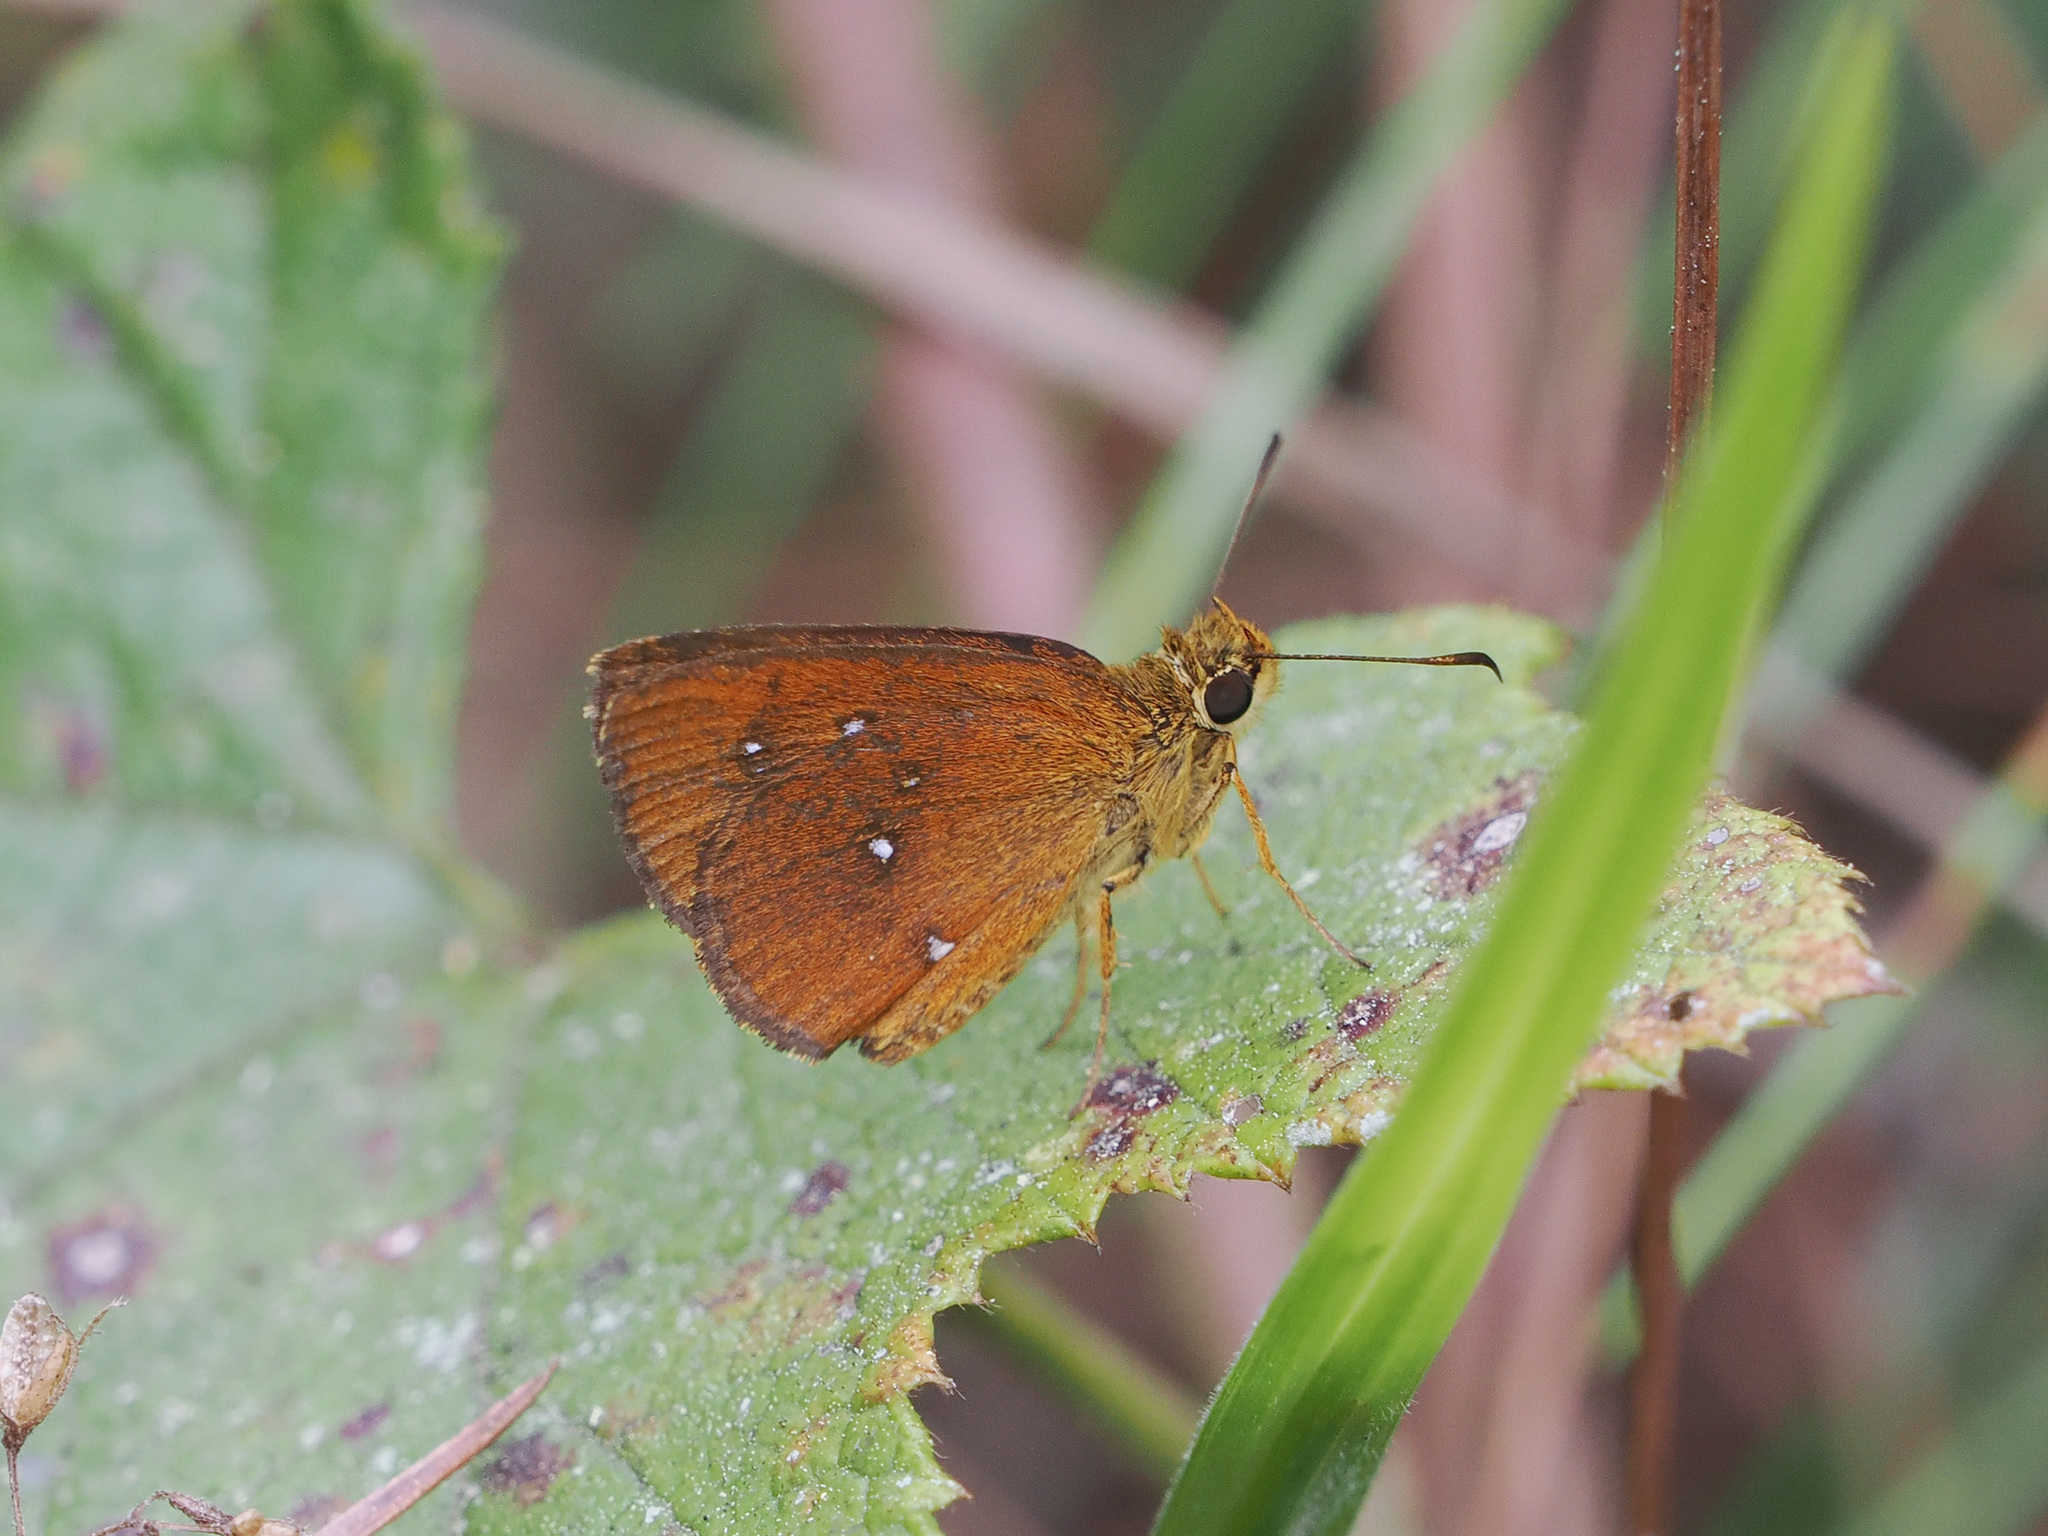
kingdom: Animalia
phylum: Arthropoda
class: Insecta
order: Lepidoptera
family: Hesperiidae
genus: Iambrix
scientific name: Iambrix salsala
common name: Chestnut bob
